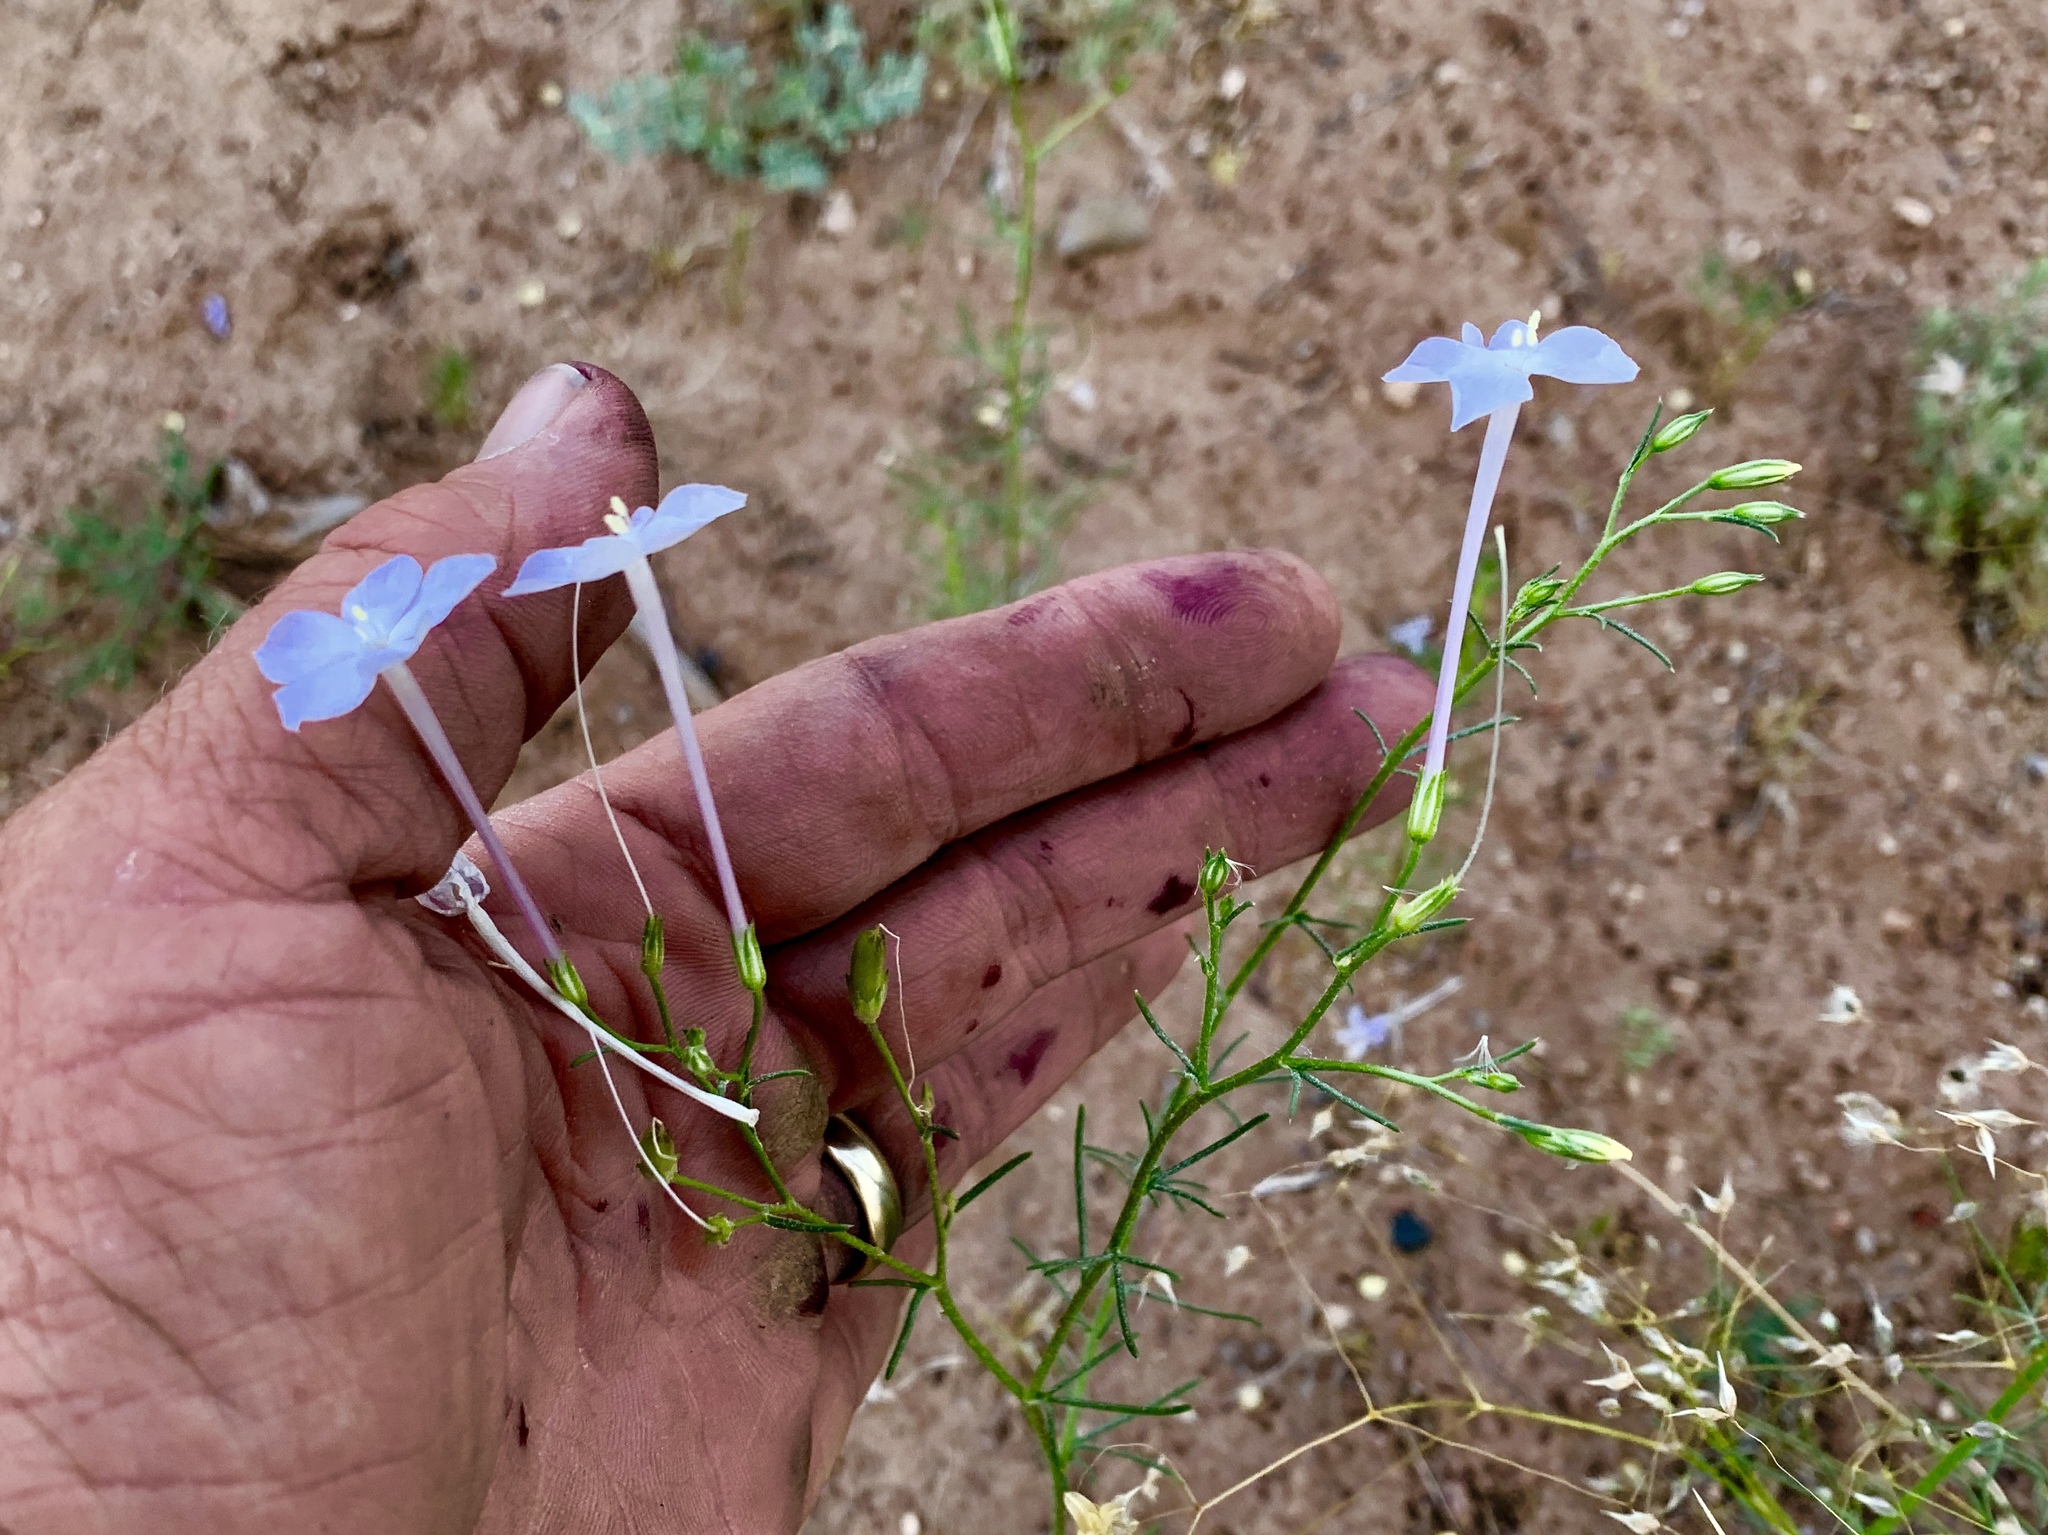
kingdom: Plantae
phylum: Tracheophyta
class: Magnoliopsida
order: Ericales
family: Polemoniaceae
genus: Ipomopsis
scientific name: Ipomopsis longiflora
